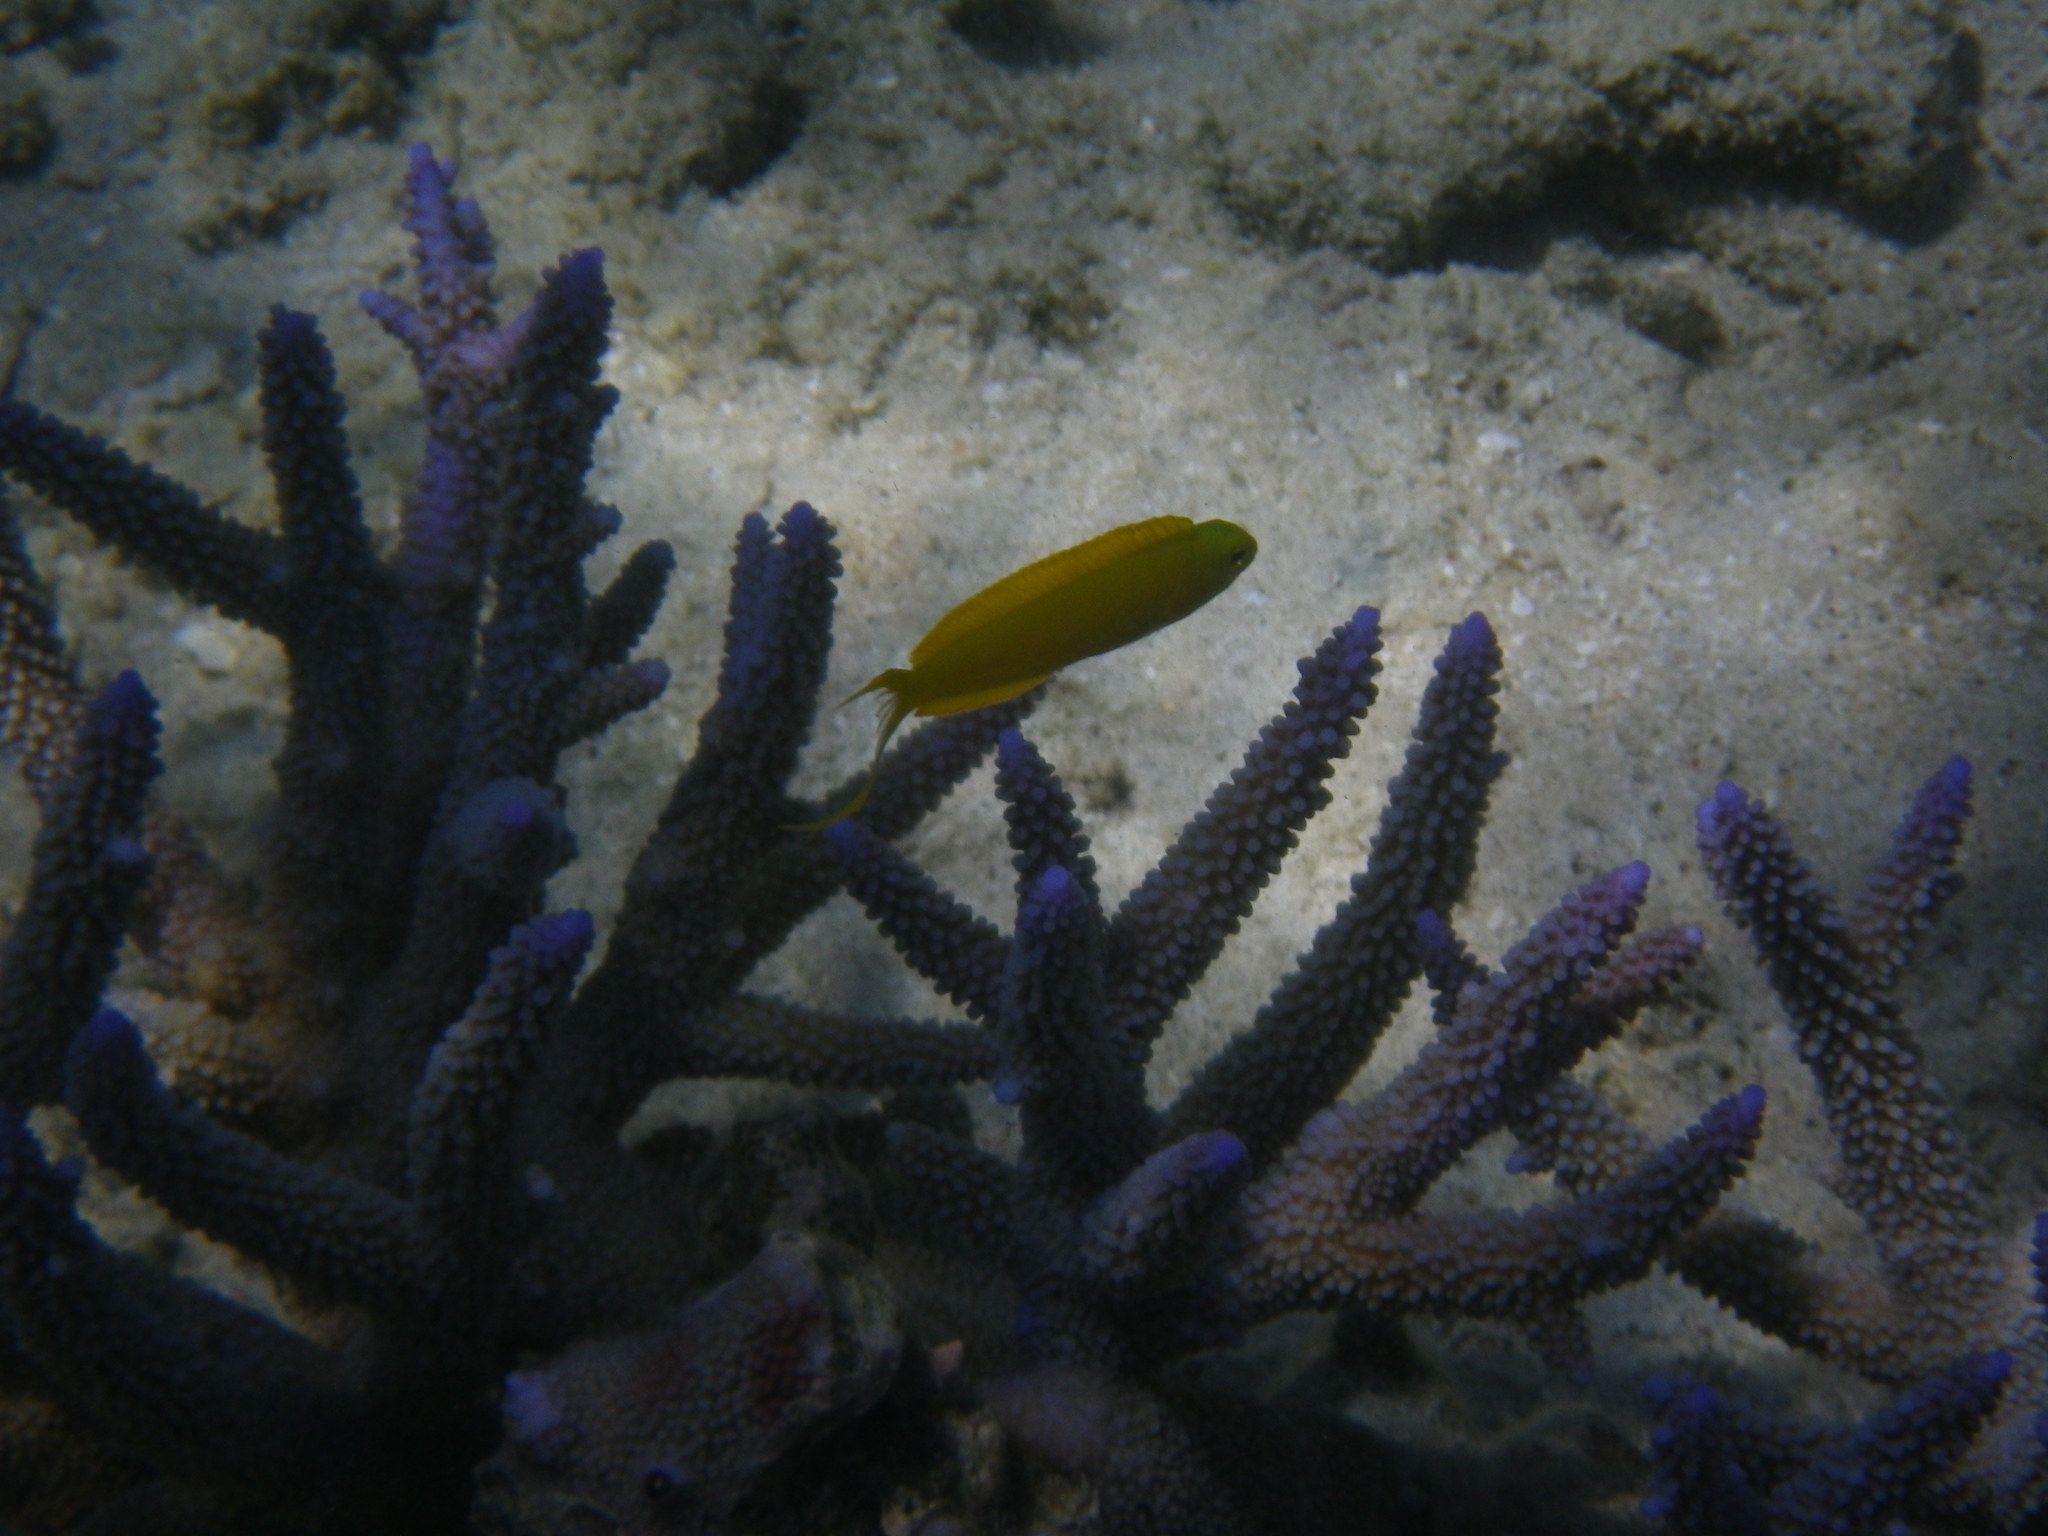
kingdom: Animalia
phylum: Chordata
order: Perciformes
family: Blenniidae
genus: Plagiotremus
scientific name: Plagiotremus laudandus
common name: Bicolour fangblenny
